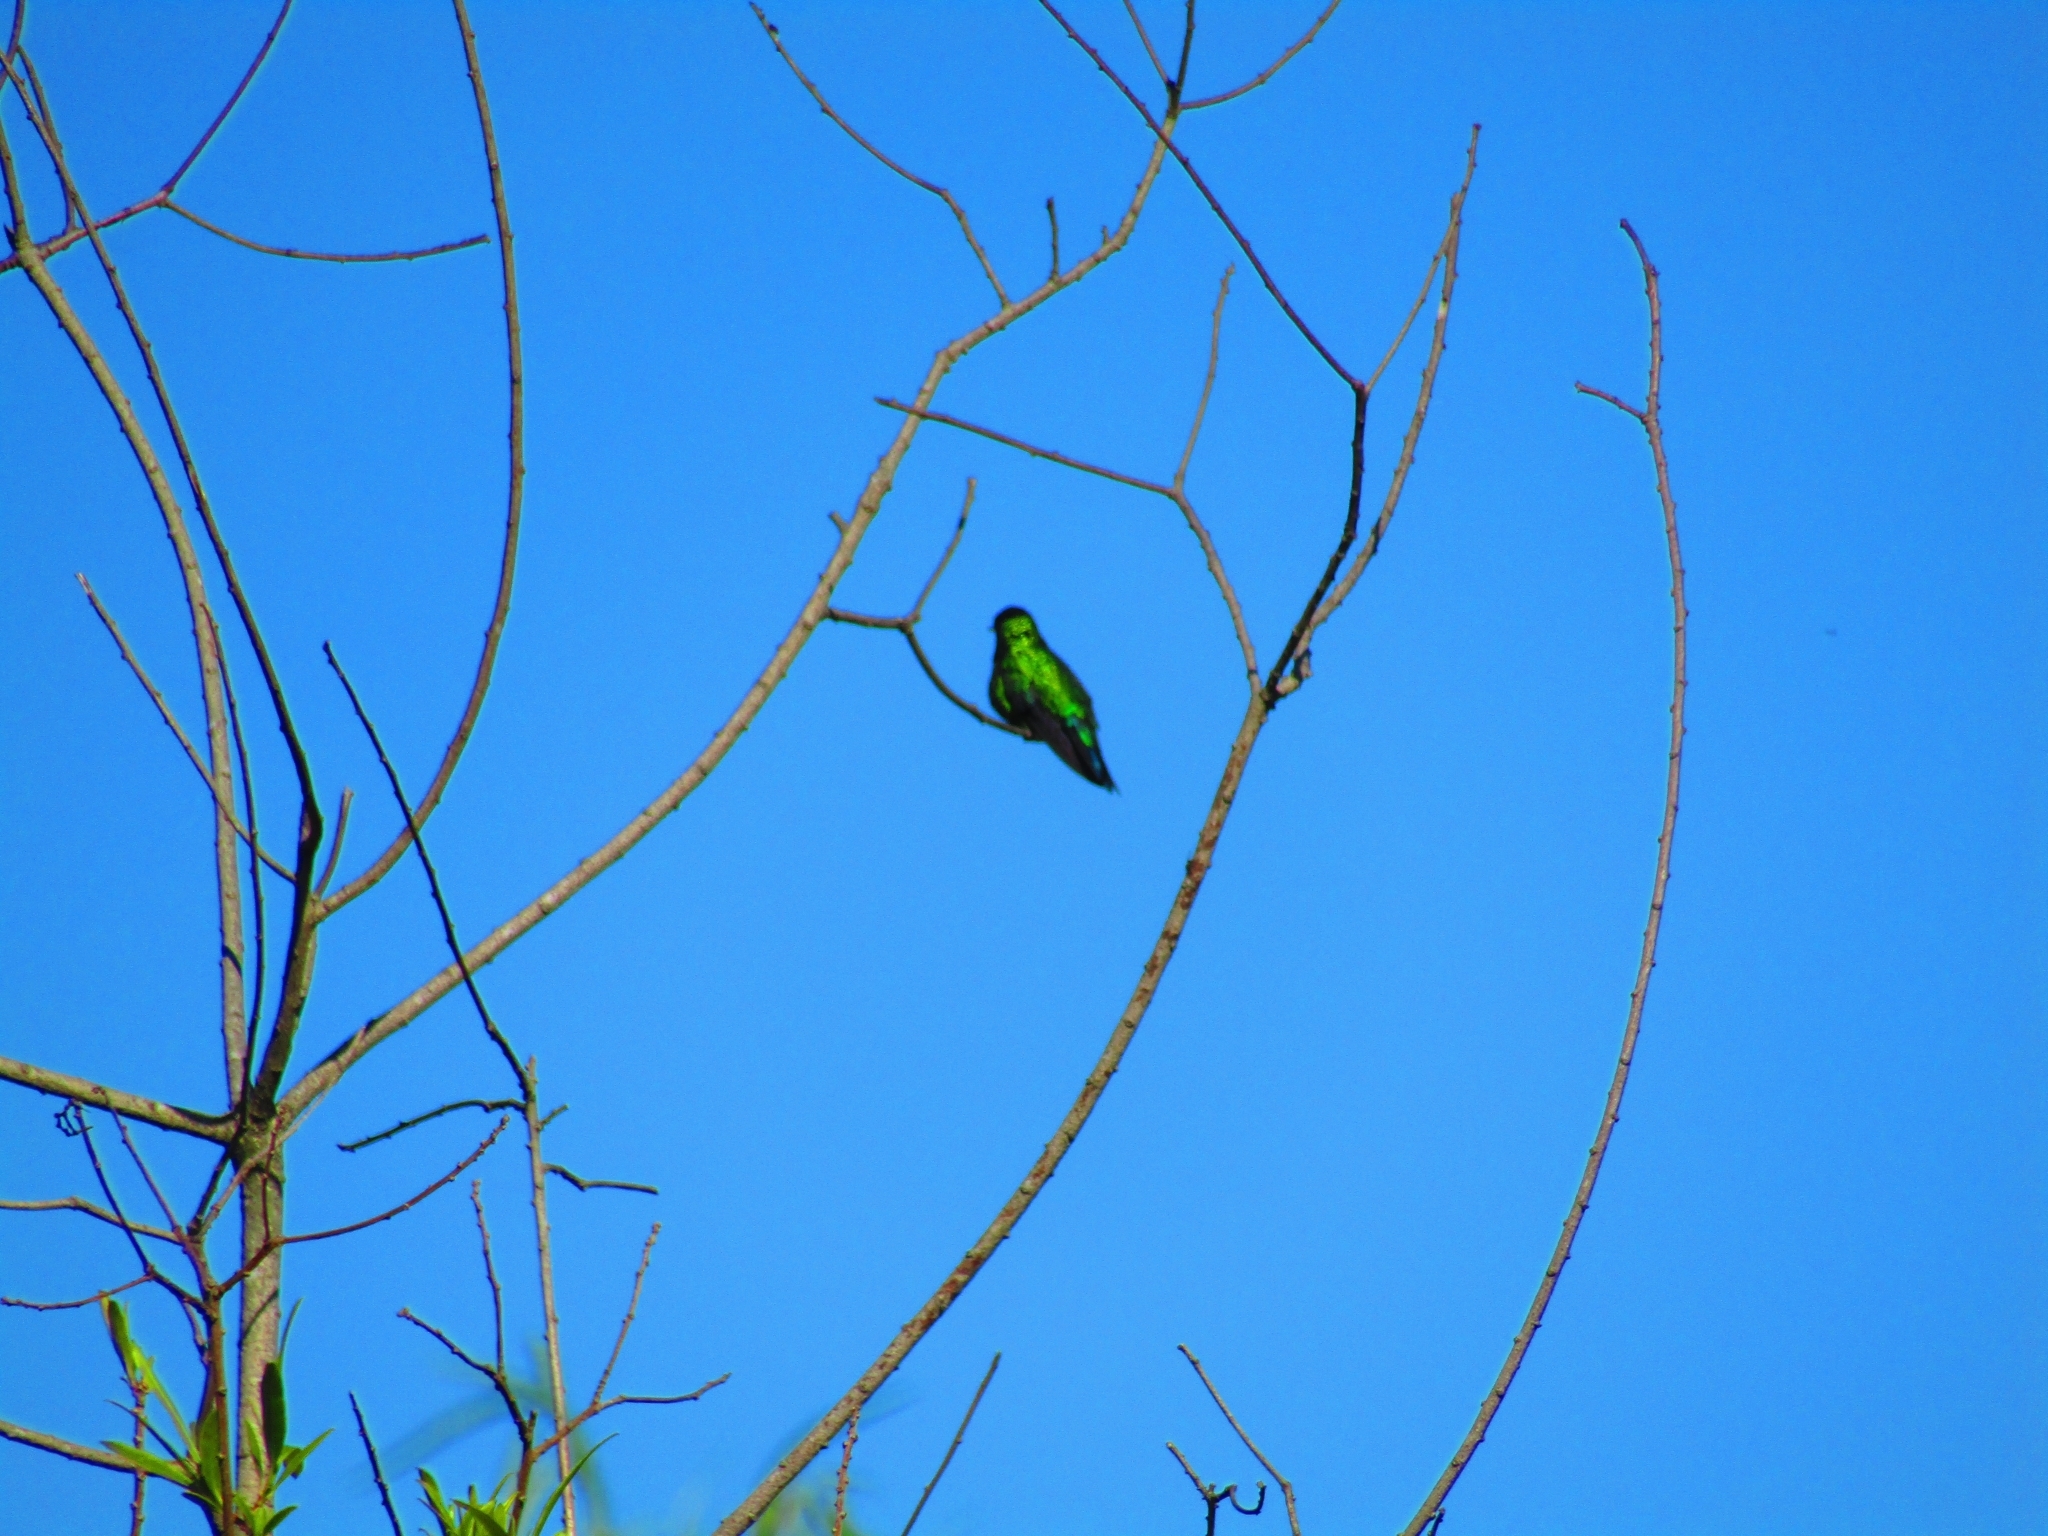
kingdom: Animalia
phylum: Chordata
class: Aves
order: Apodiformes
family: Trochilidae
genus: Chlorostilbon
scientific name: Chlorostilbon lucidus
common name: Glittering-bellied emerald
